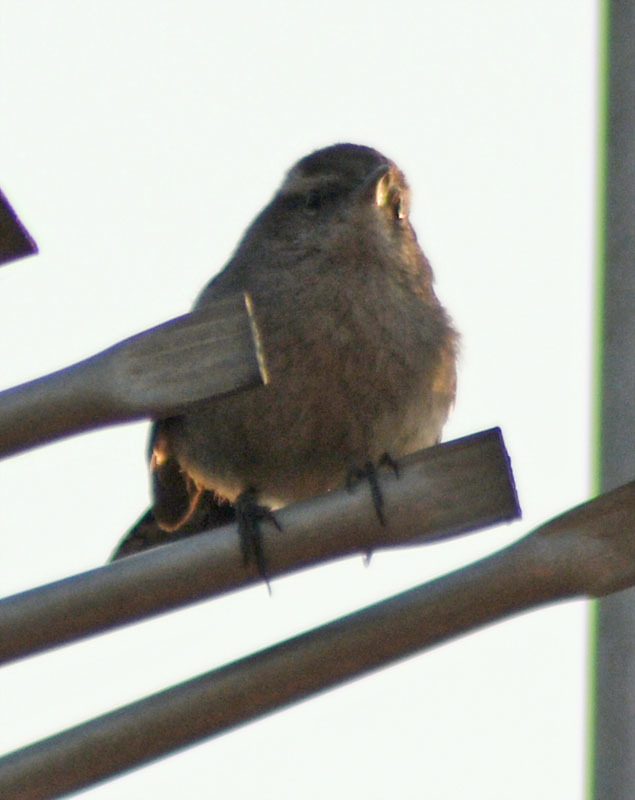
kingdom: Animalia
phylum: Chordata
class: Aves
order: Passeriformes
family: Troglodytidae
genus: Thryomanes
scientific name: Thryomanes bewickii
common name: Bewick's wren
